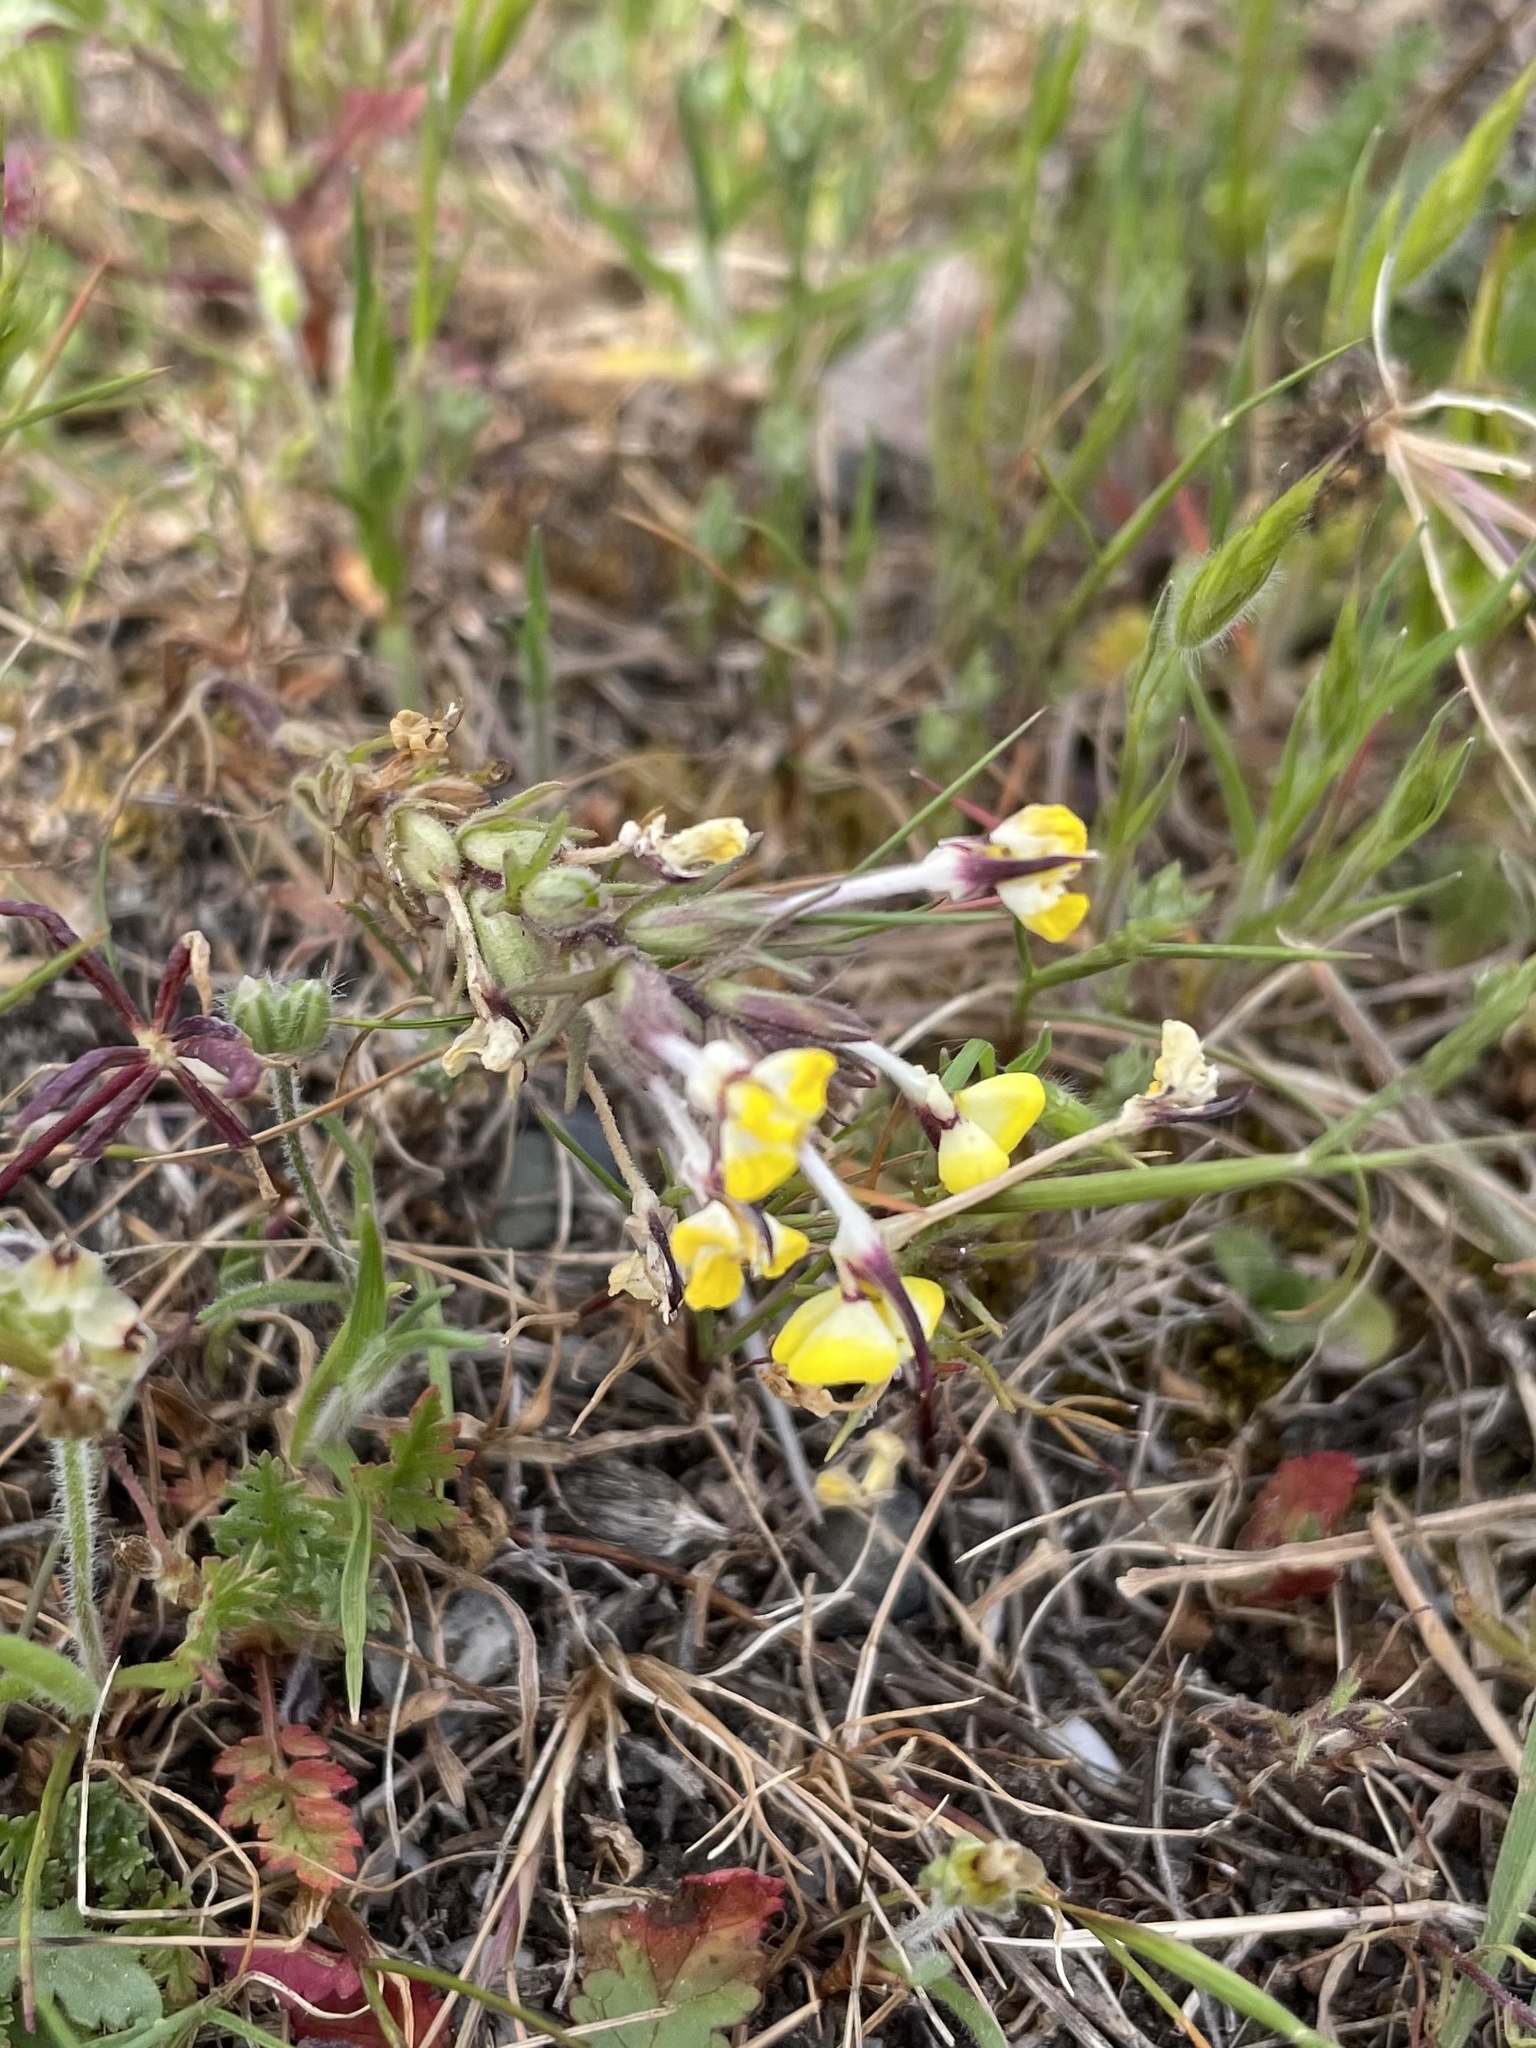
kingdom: Plantae
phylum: Tracheophyta
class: Magnoliopsida
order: Lamiales
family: Orobanchaceae
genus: Triphysaria
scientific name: Triphysaria eriantha
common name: Johnny-tuck
